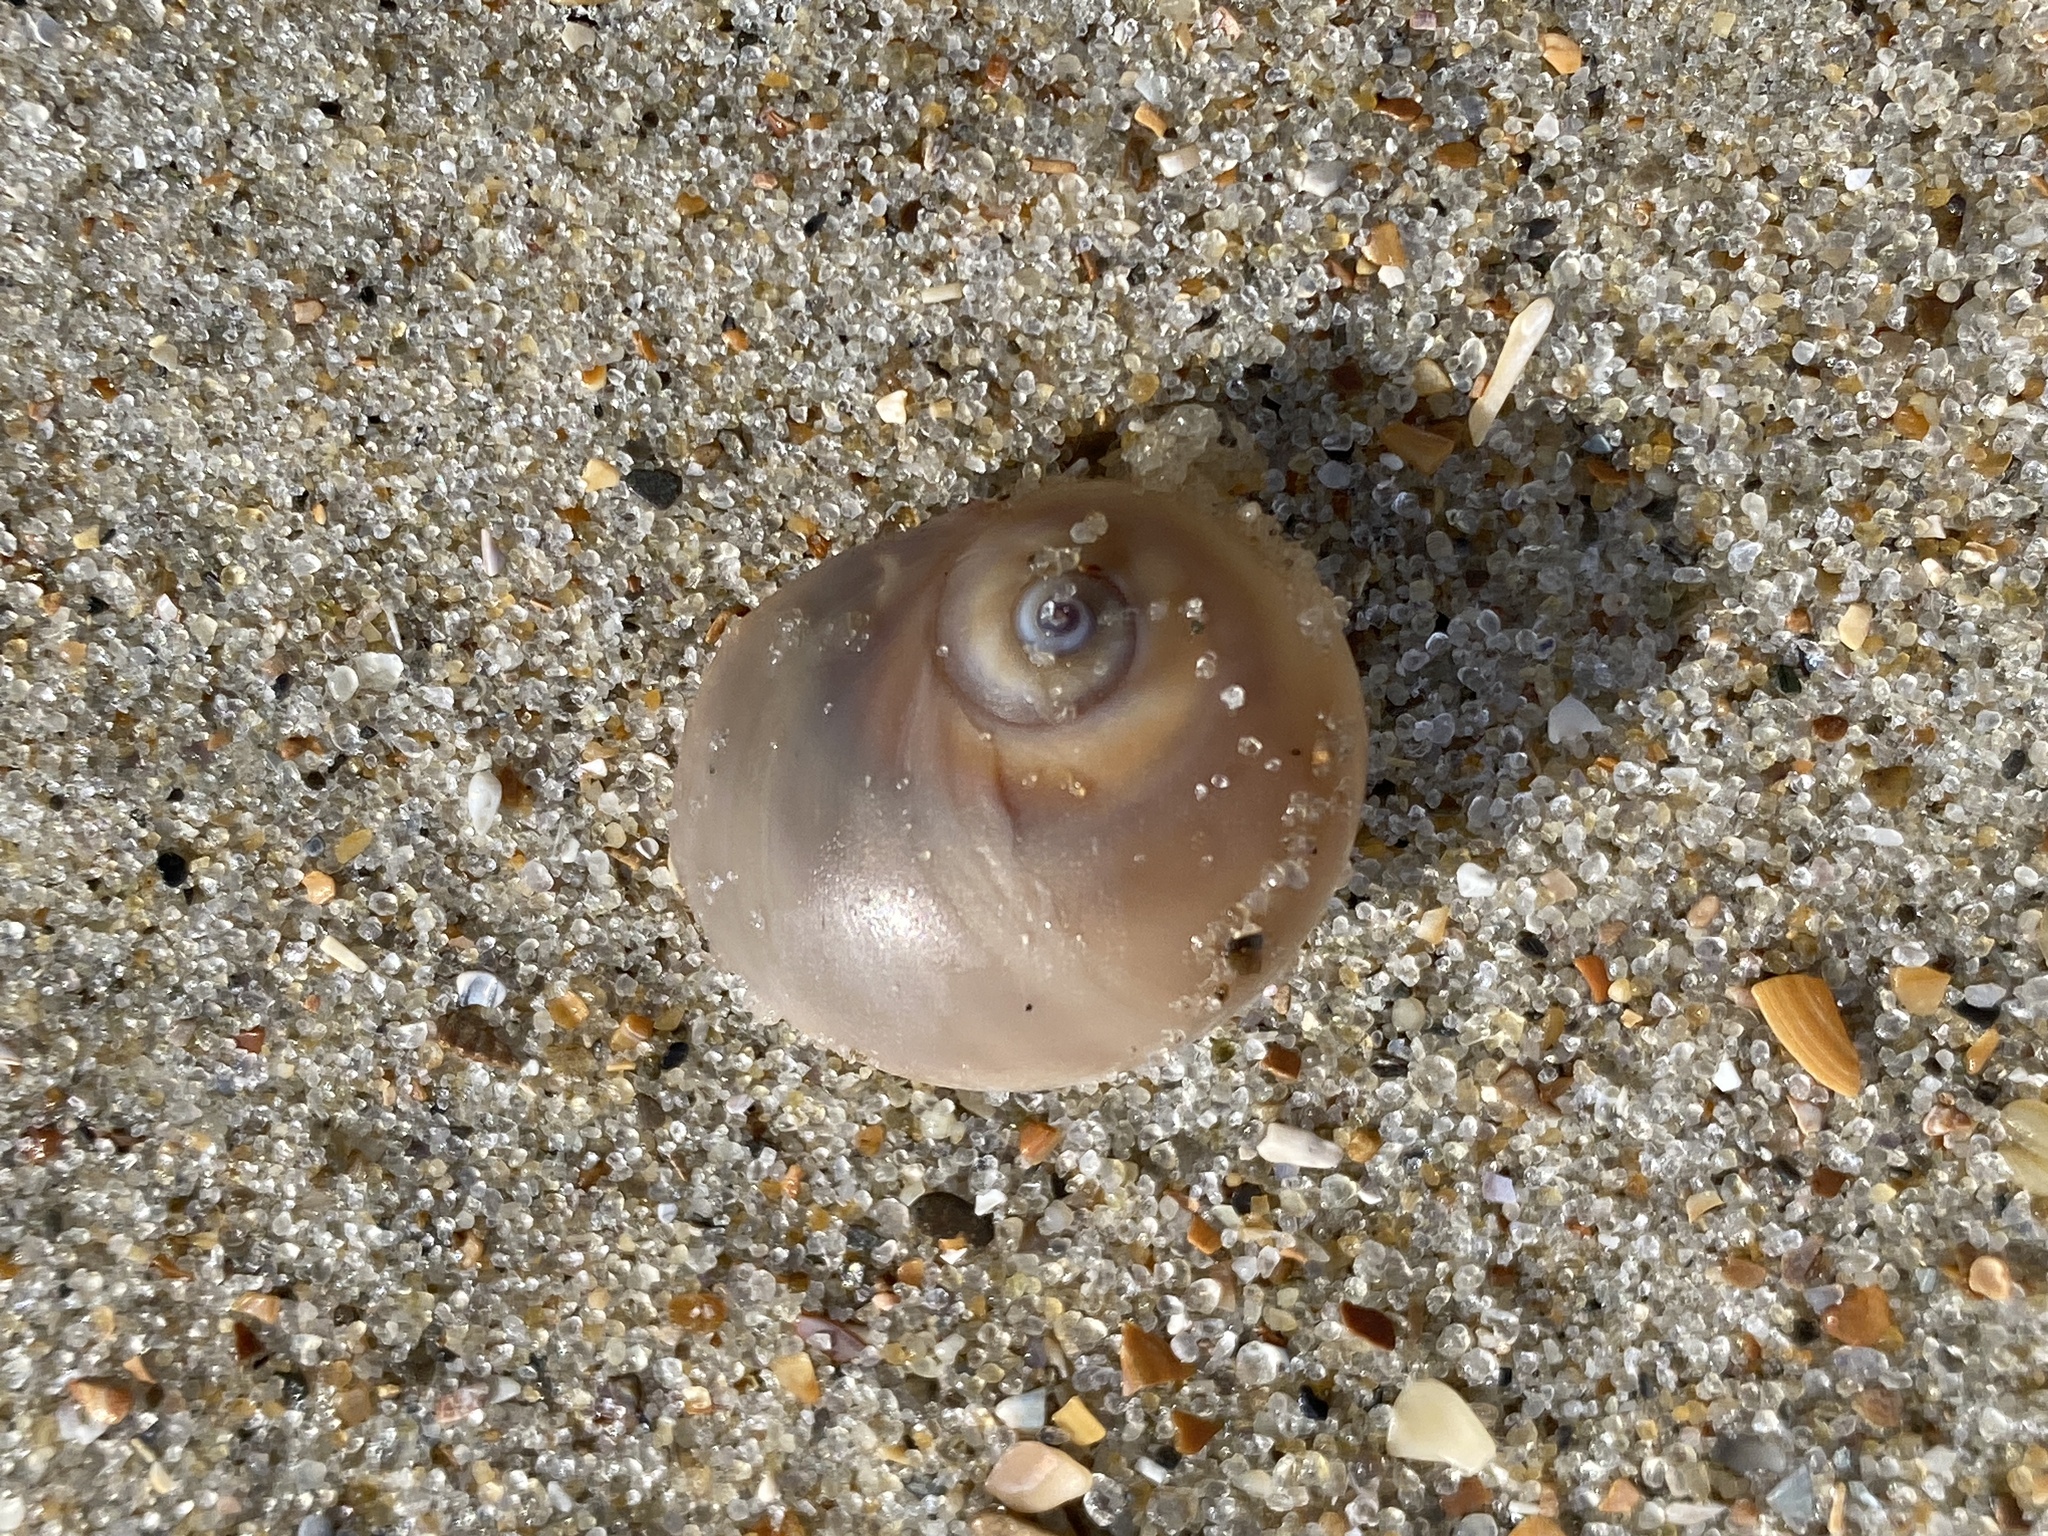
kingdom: Animalia
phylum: Mollusca
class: Gastropoda
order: Littorinimorpha
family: Naticidae
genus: Neverita
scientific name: Neverita duplicata
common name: Lobed moonsnail
